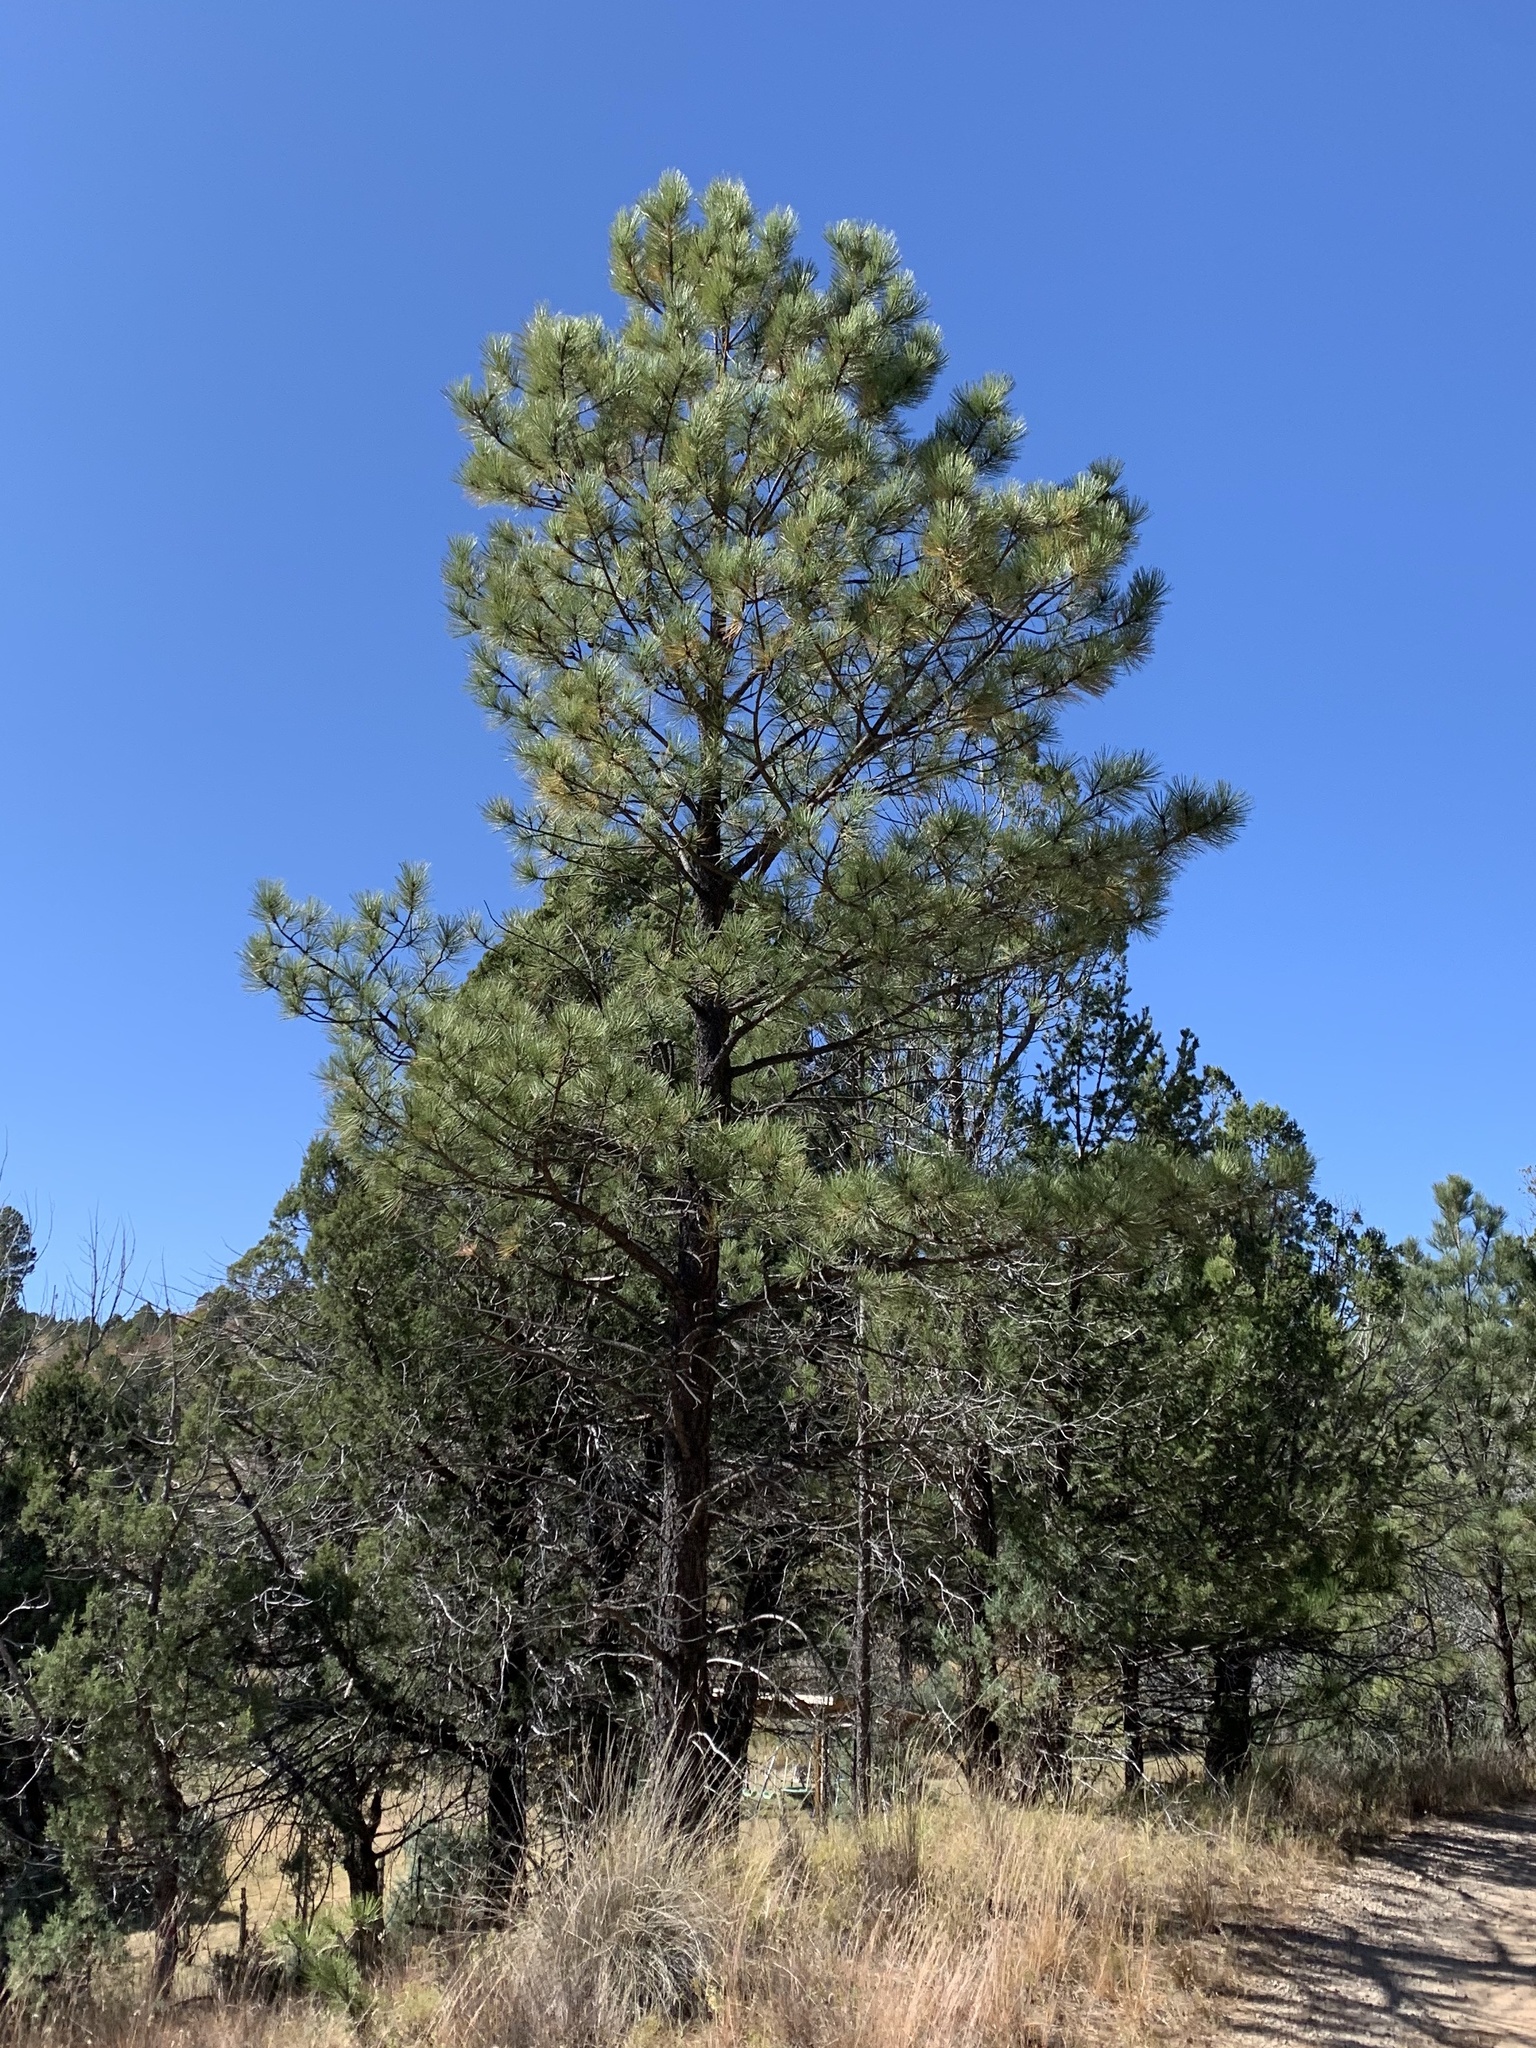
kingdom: Plantae
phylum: Tracheophyta
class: Pinopsida
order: Pinales
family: Pinaceae
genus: Pinus
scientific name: Pinus ponderosa
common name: Western yellow-pine
